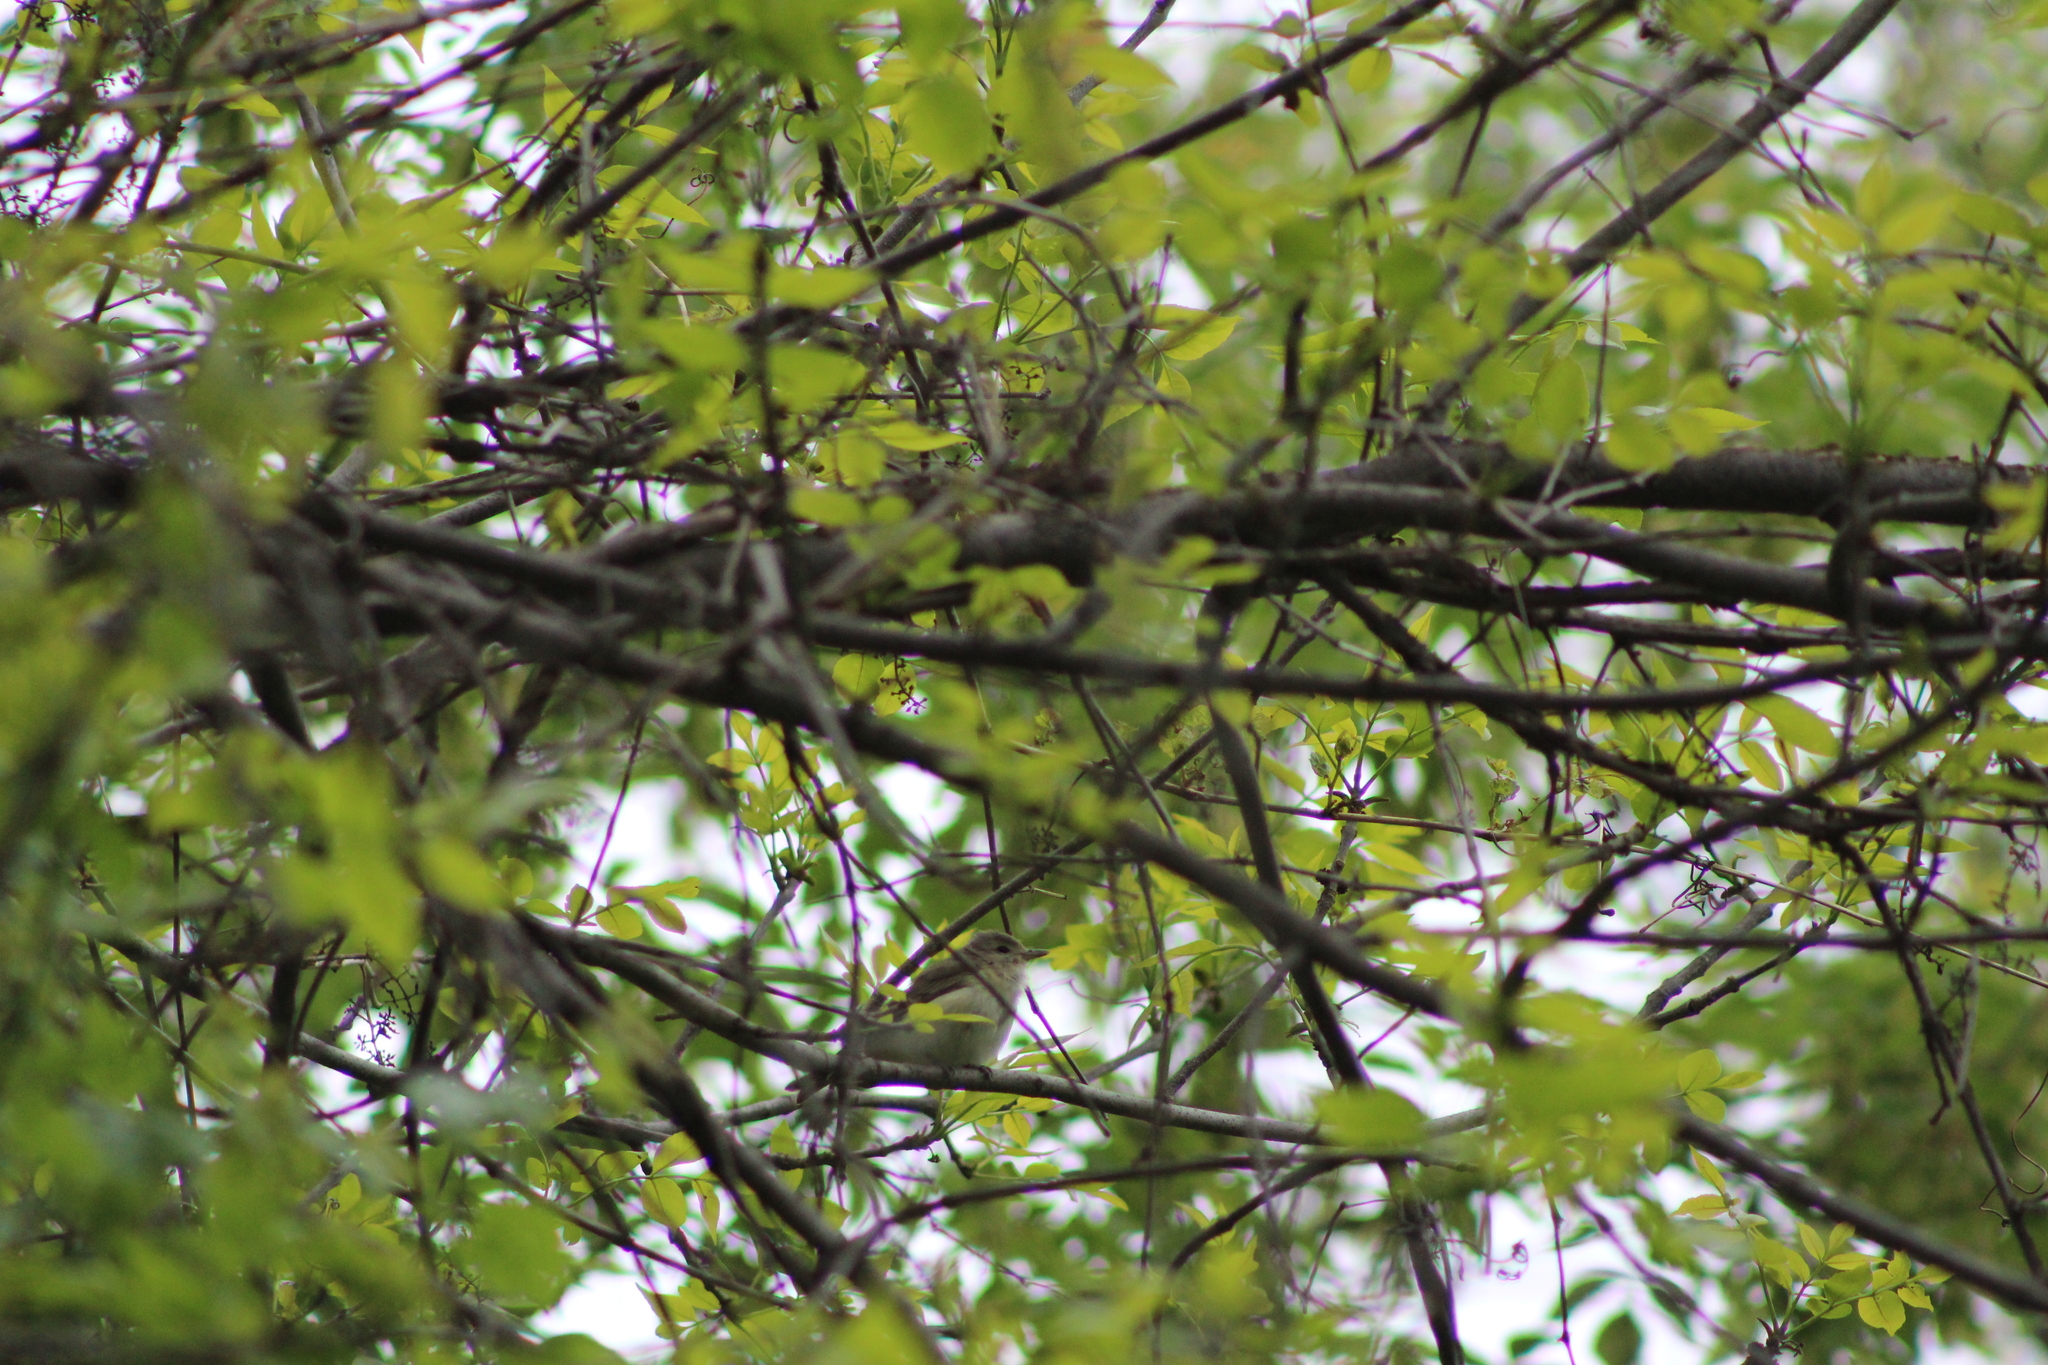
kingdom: Animalia
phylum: Chordata
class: Aves
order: Passeriformes
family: Vireonidae
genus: Vireo
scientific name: Vireo gilvus
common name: Warbling vireo
